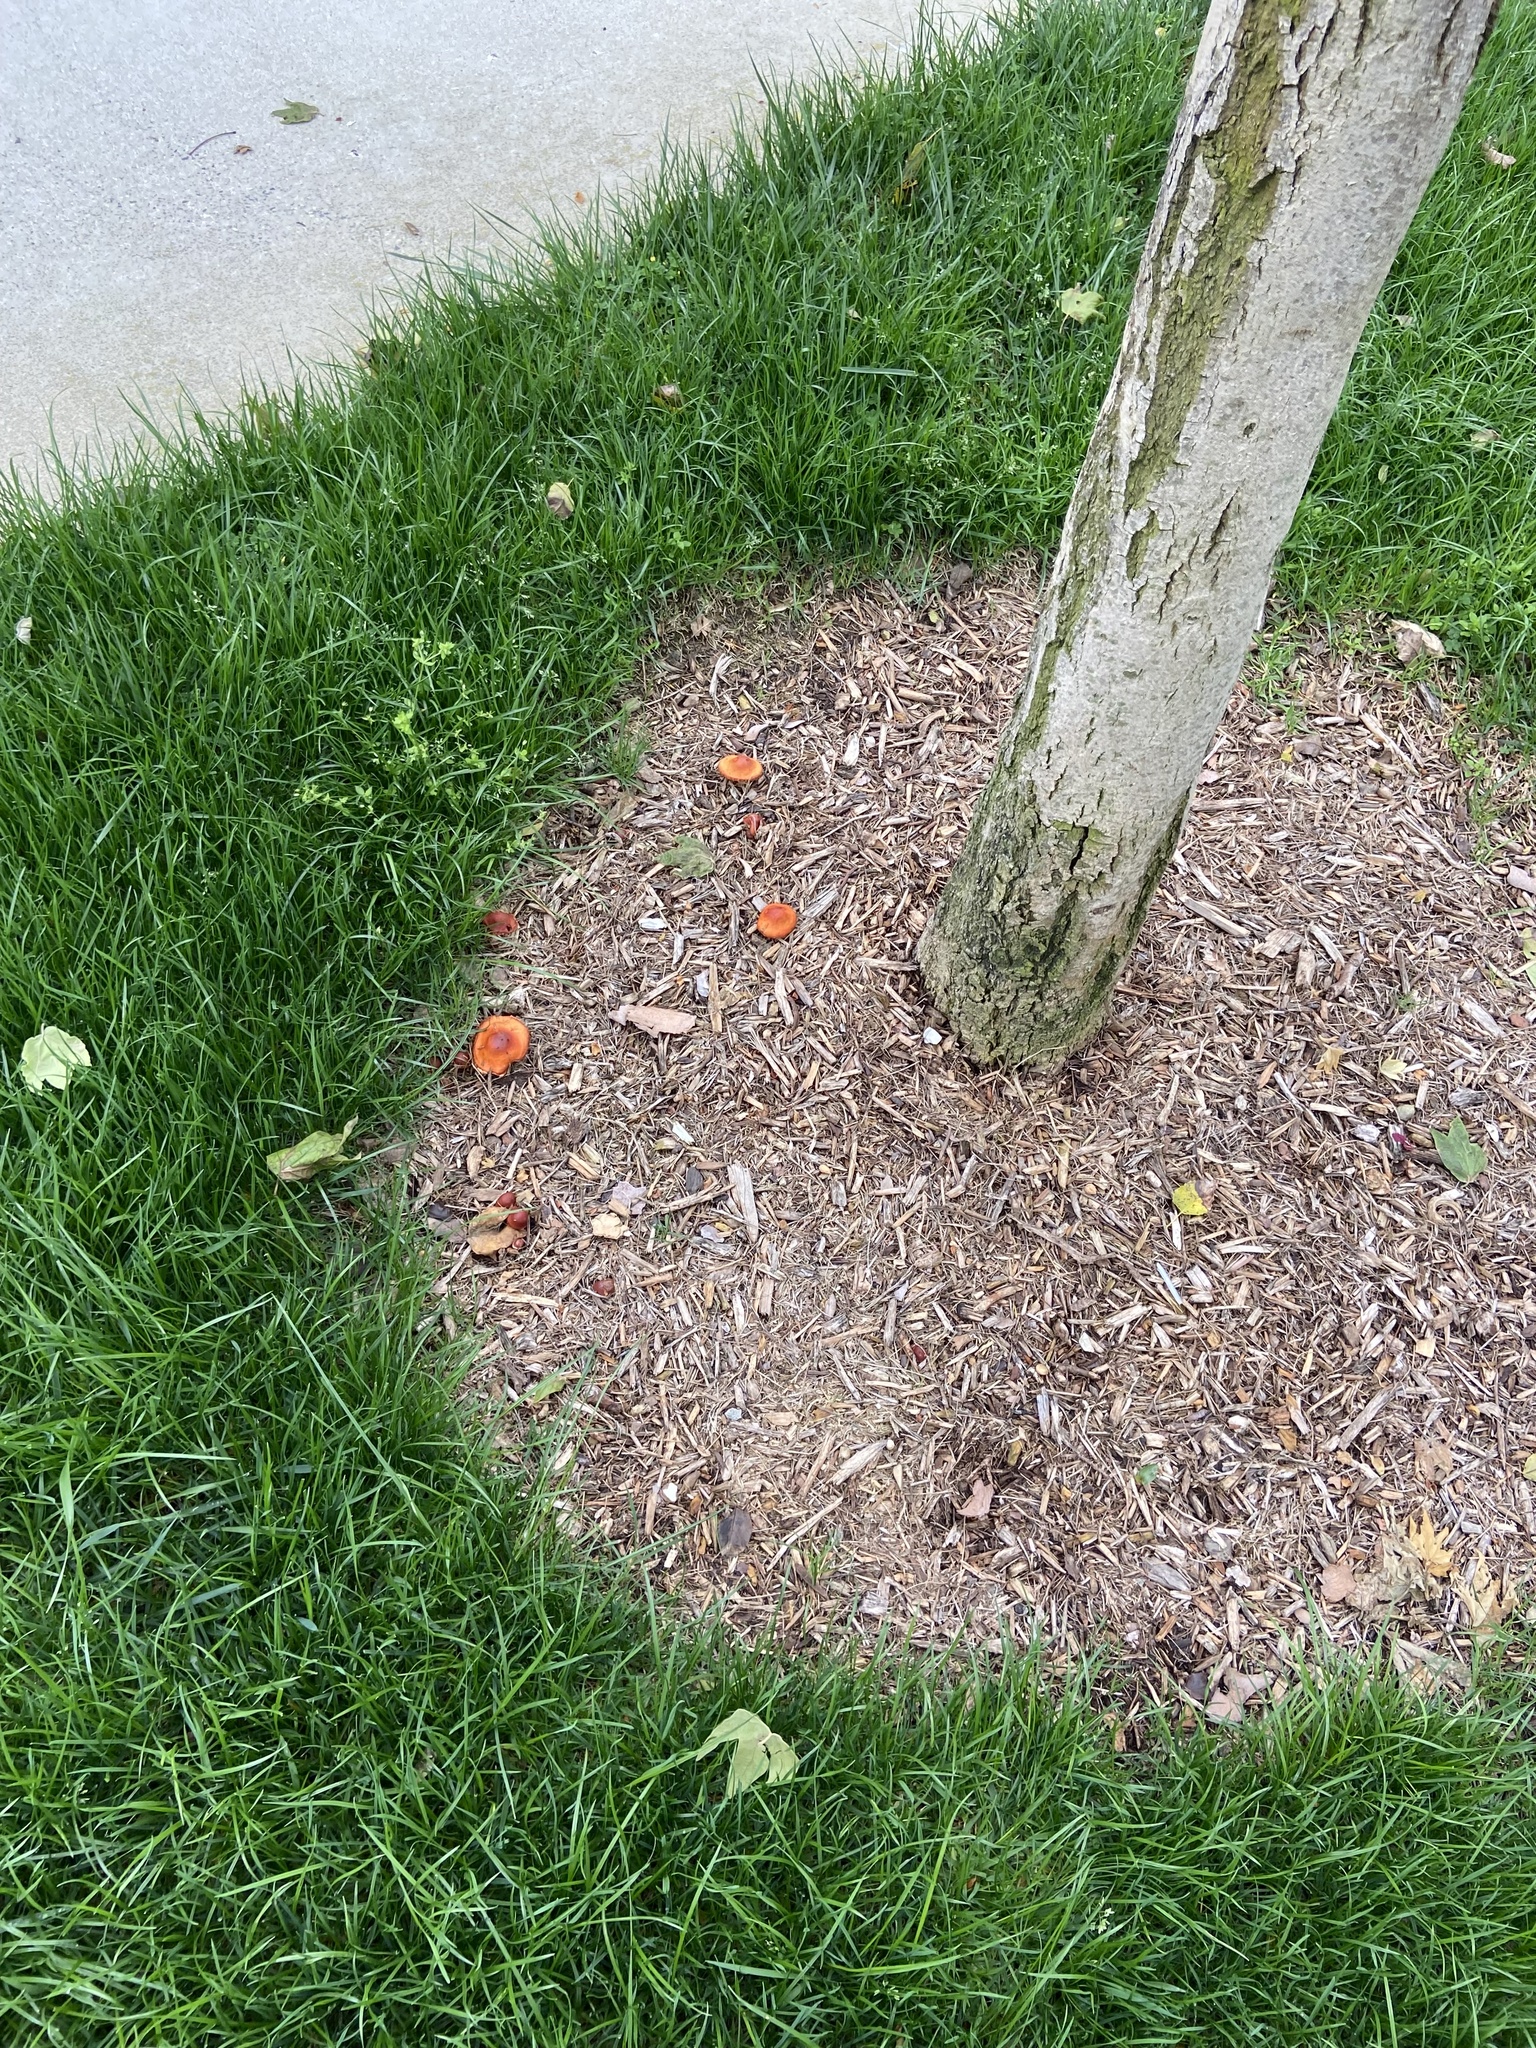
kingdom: Fungi
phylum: Basidiomycota
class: Agaricomycetes
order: Agaricales
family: Strophariaceae
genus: Leratiomyces
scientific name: Leratiomyces ceres
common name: Redlead roundhead
